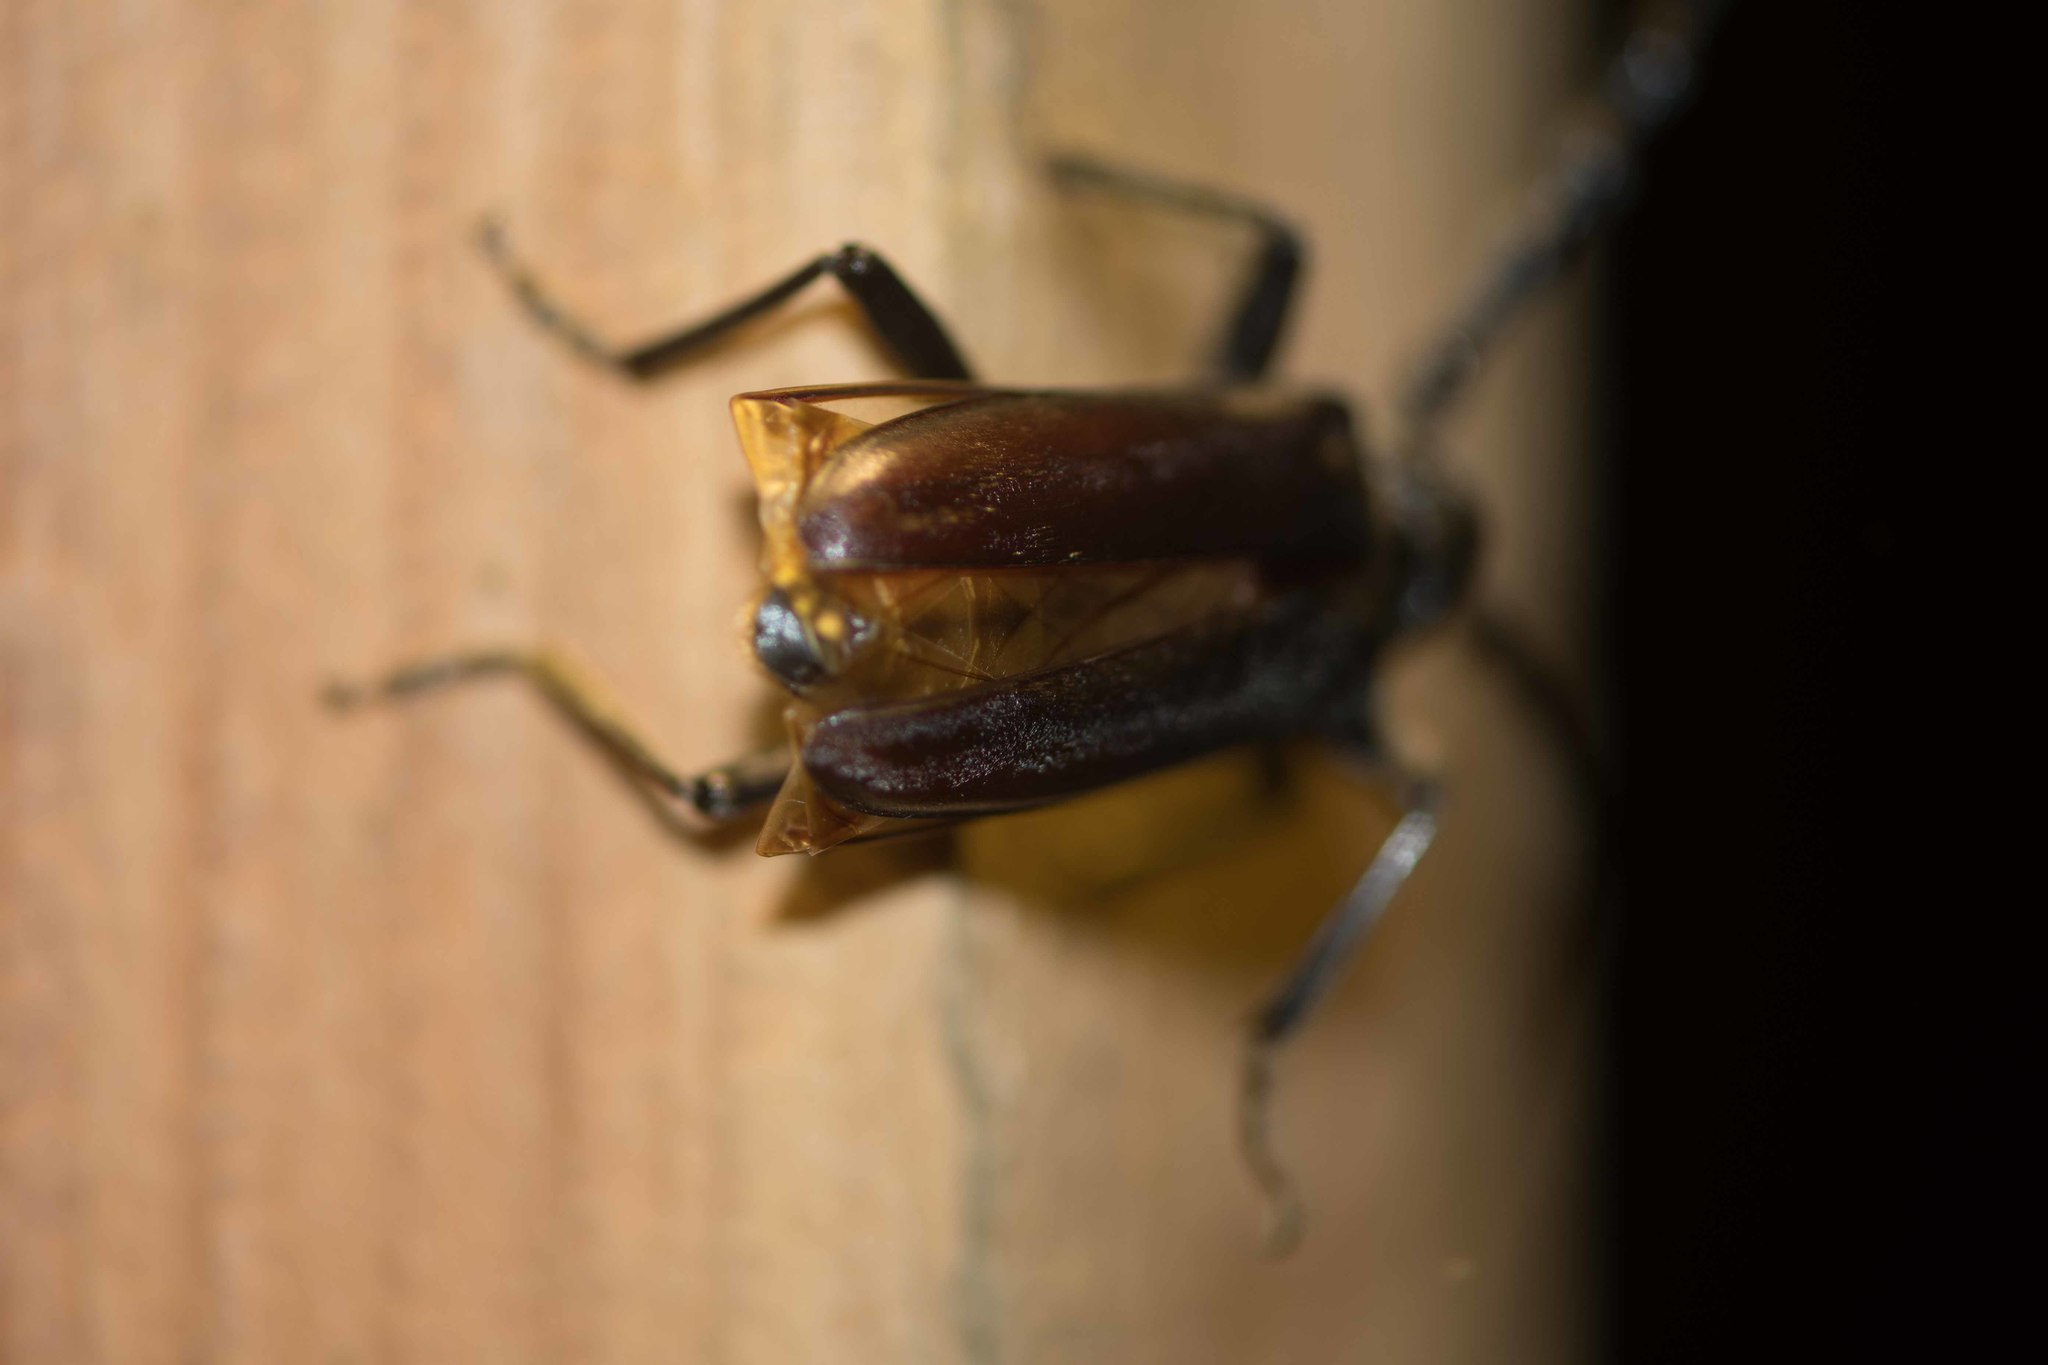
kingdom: Animalia
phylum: Arthropoda
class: Insecta
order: Coleoptera
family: Cerambycidae
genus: Cerambyx
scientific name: Cerambyx welensii
